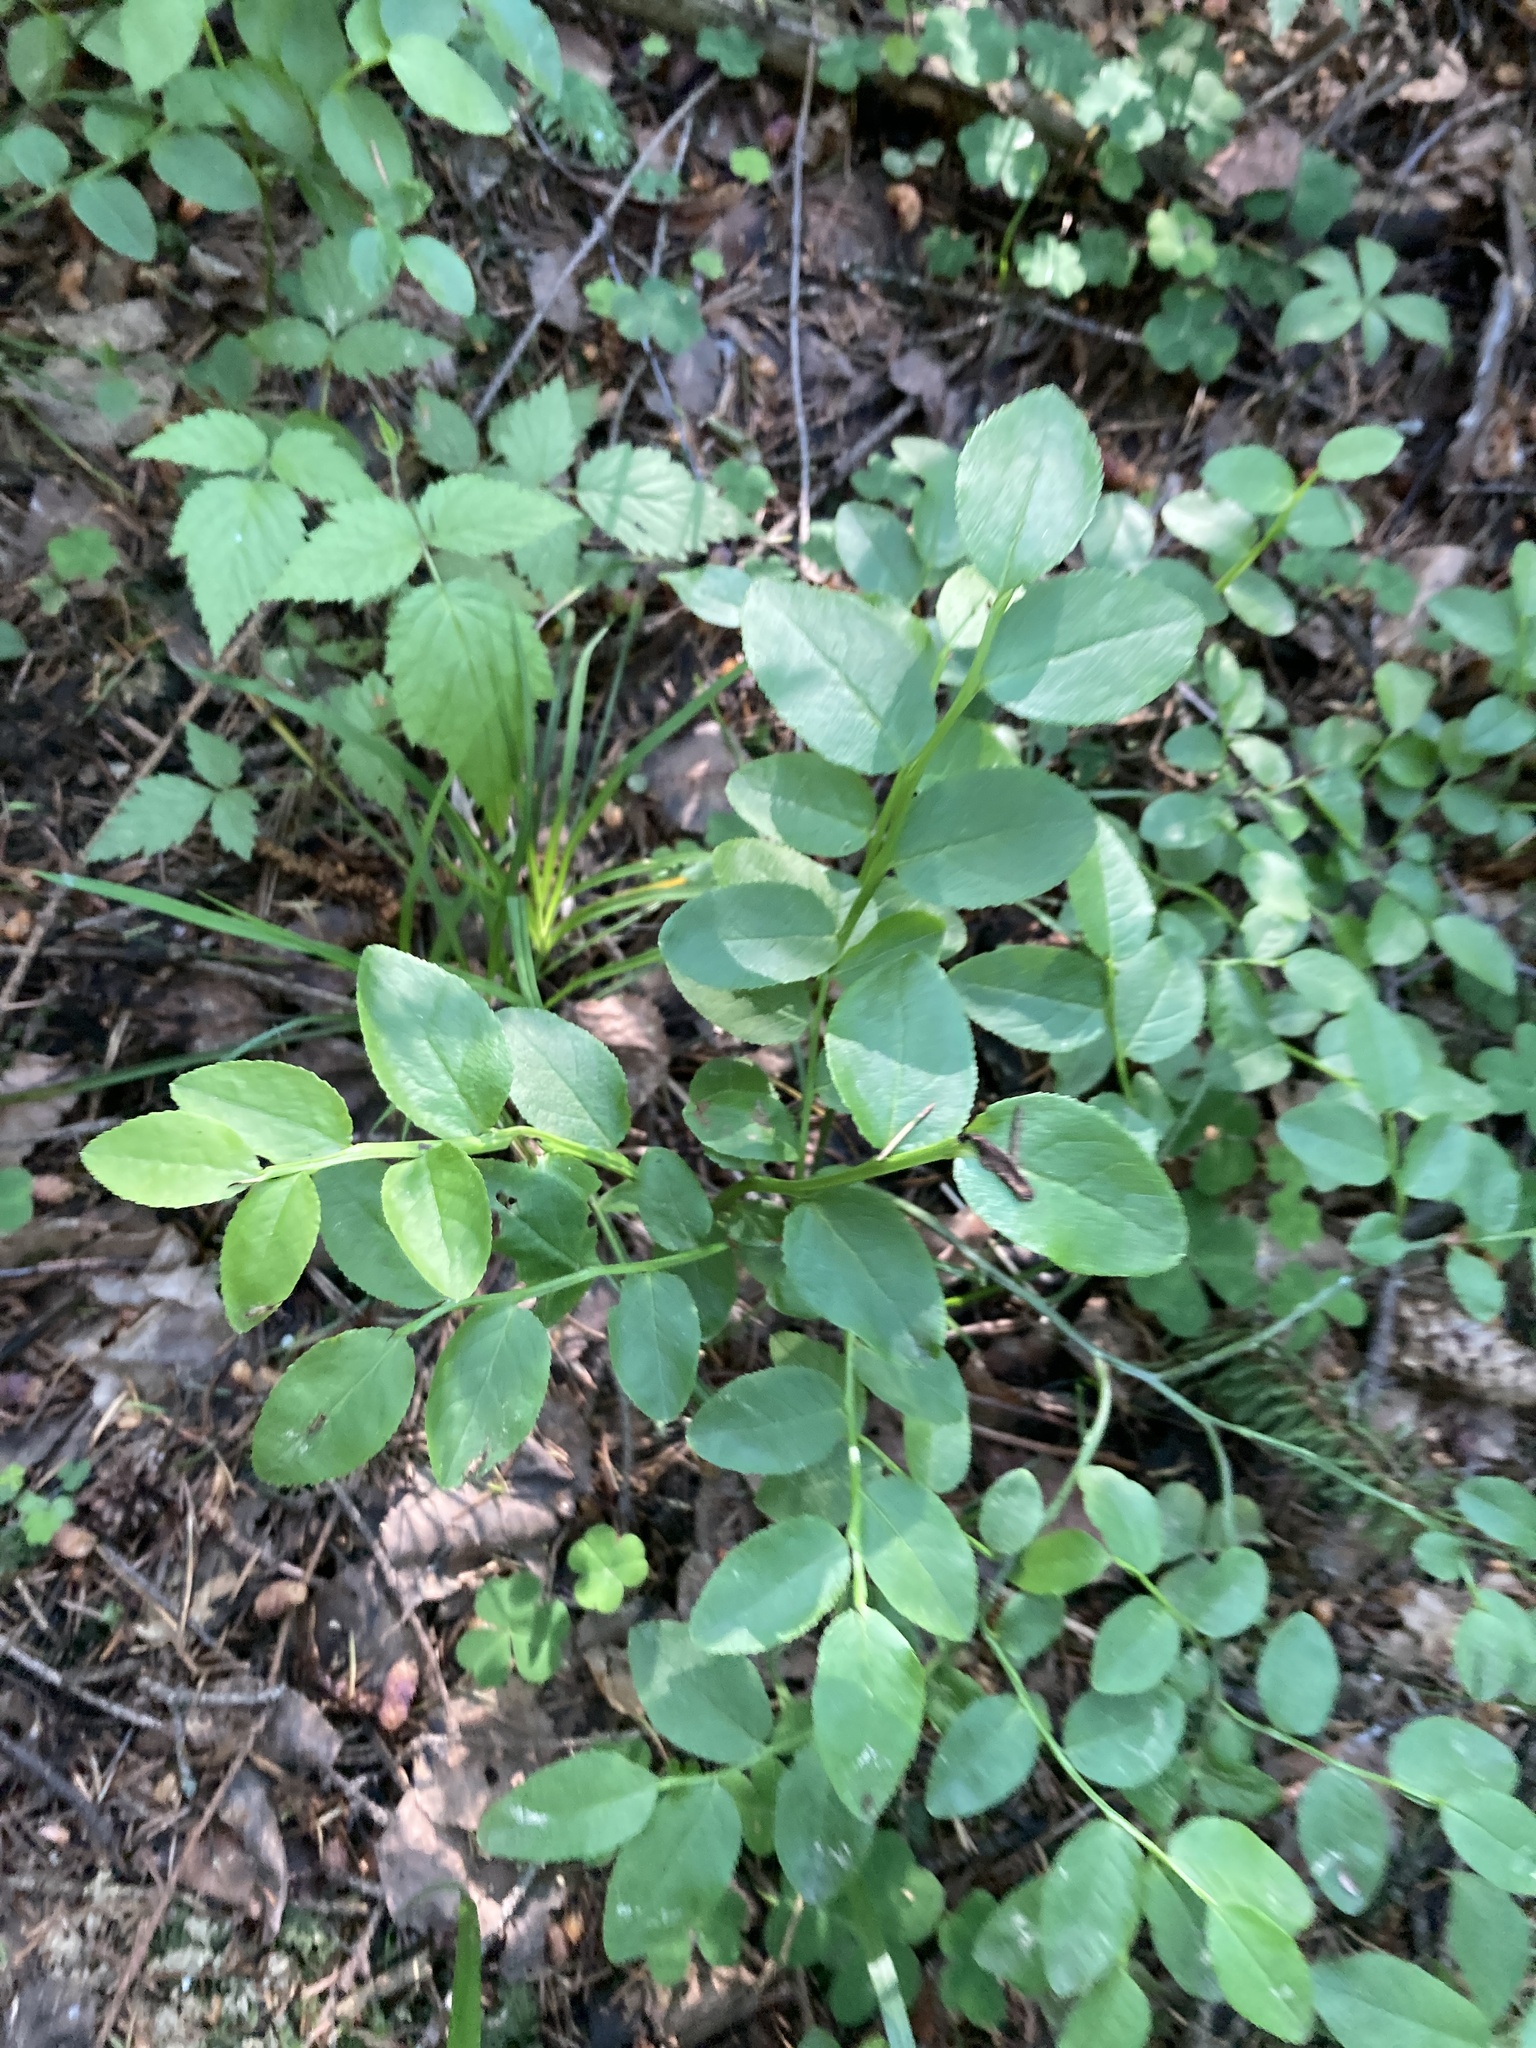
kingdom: Plantae
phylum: Tracheophyta
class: Magnoliopsida
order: Ericales
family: Ericaceae
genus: Vaccinium
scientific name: Vaccinium myrtillus
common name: Bilberry
